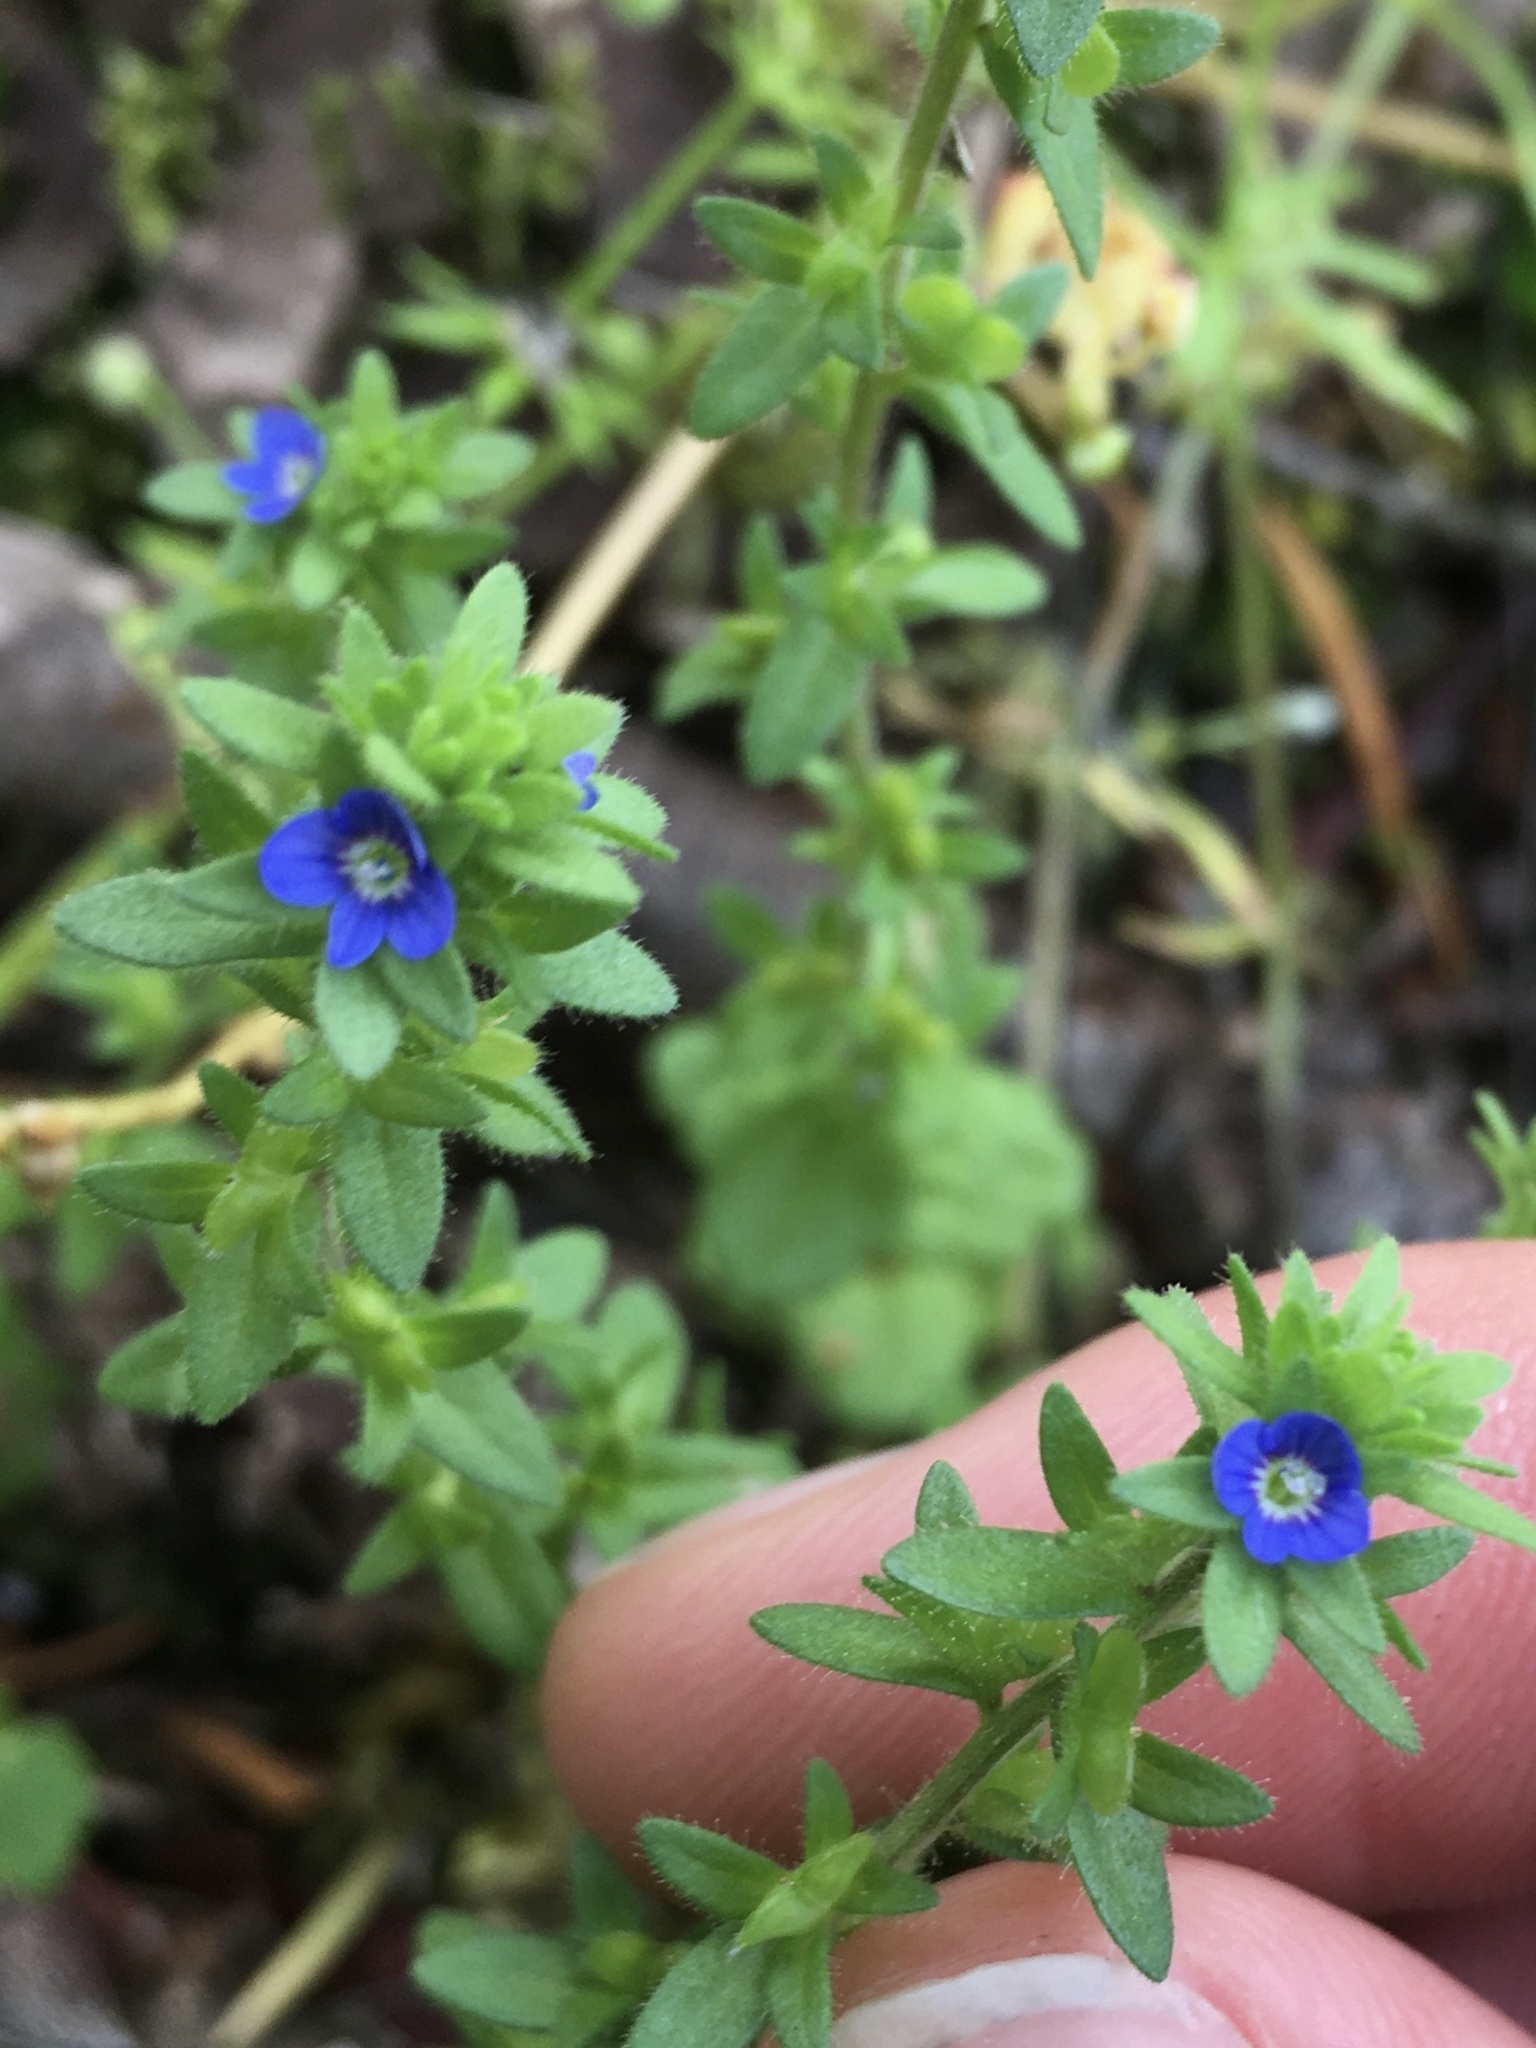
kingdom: Plantae
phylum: Tracheophyta
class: Magnoliopsida
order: Lamiales
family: Plantaginaceae
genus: Veronica
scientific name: Veronica arvensis
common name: Corn speedwell
